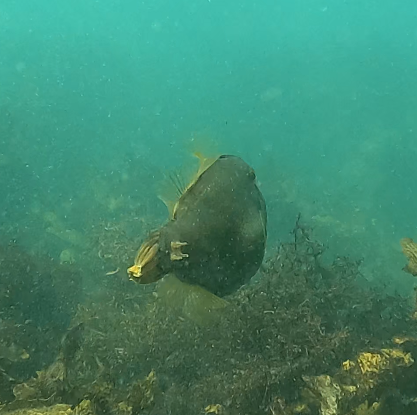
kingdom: Animalia
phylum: Chordata
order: Tetraodontiformes
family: Monacanthidae
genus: Meuschenia
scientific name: Meuschenia flavolineata
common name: Yellowstriped leatherjacket
